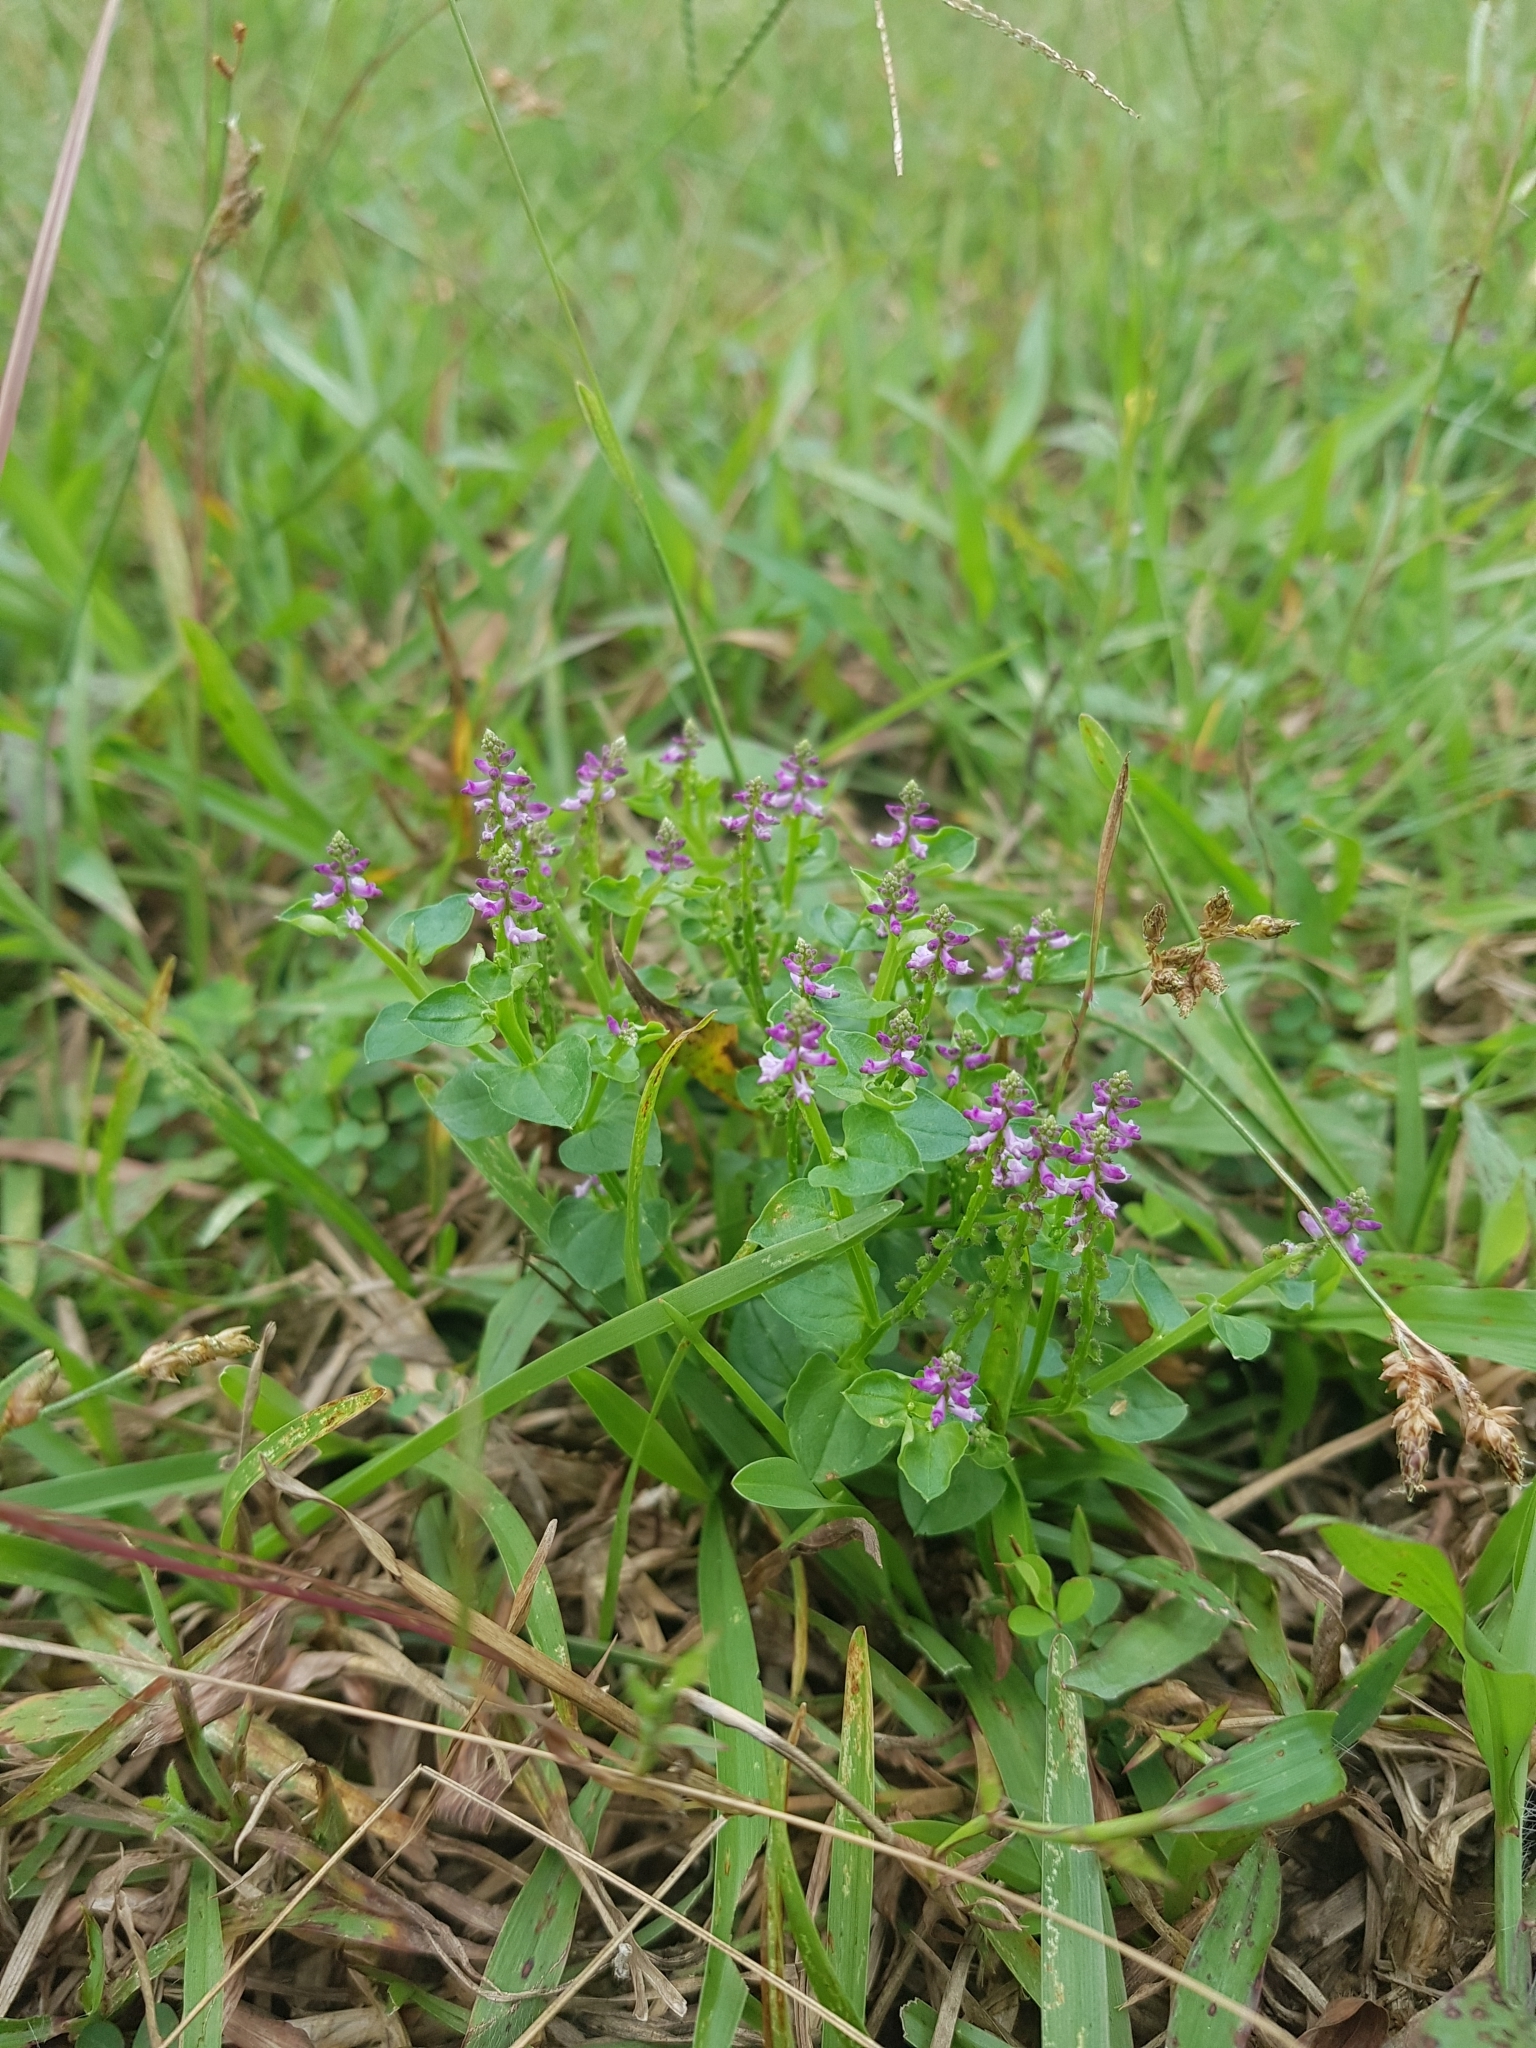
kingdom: Plantae
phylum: Tracheophyta
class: Magnoliopsida
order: Fabales
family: Polygalaceae
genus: Salomonia
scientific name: Salomonia cantoniensis
